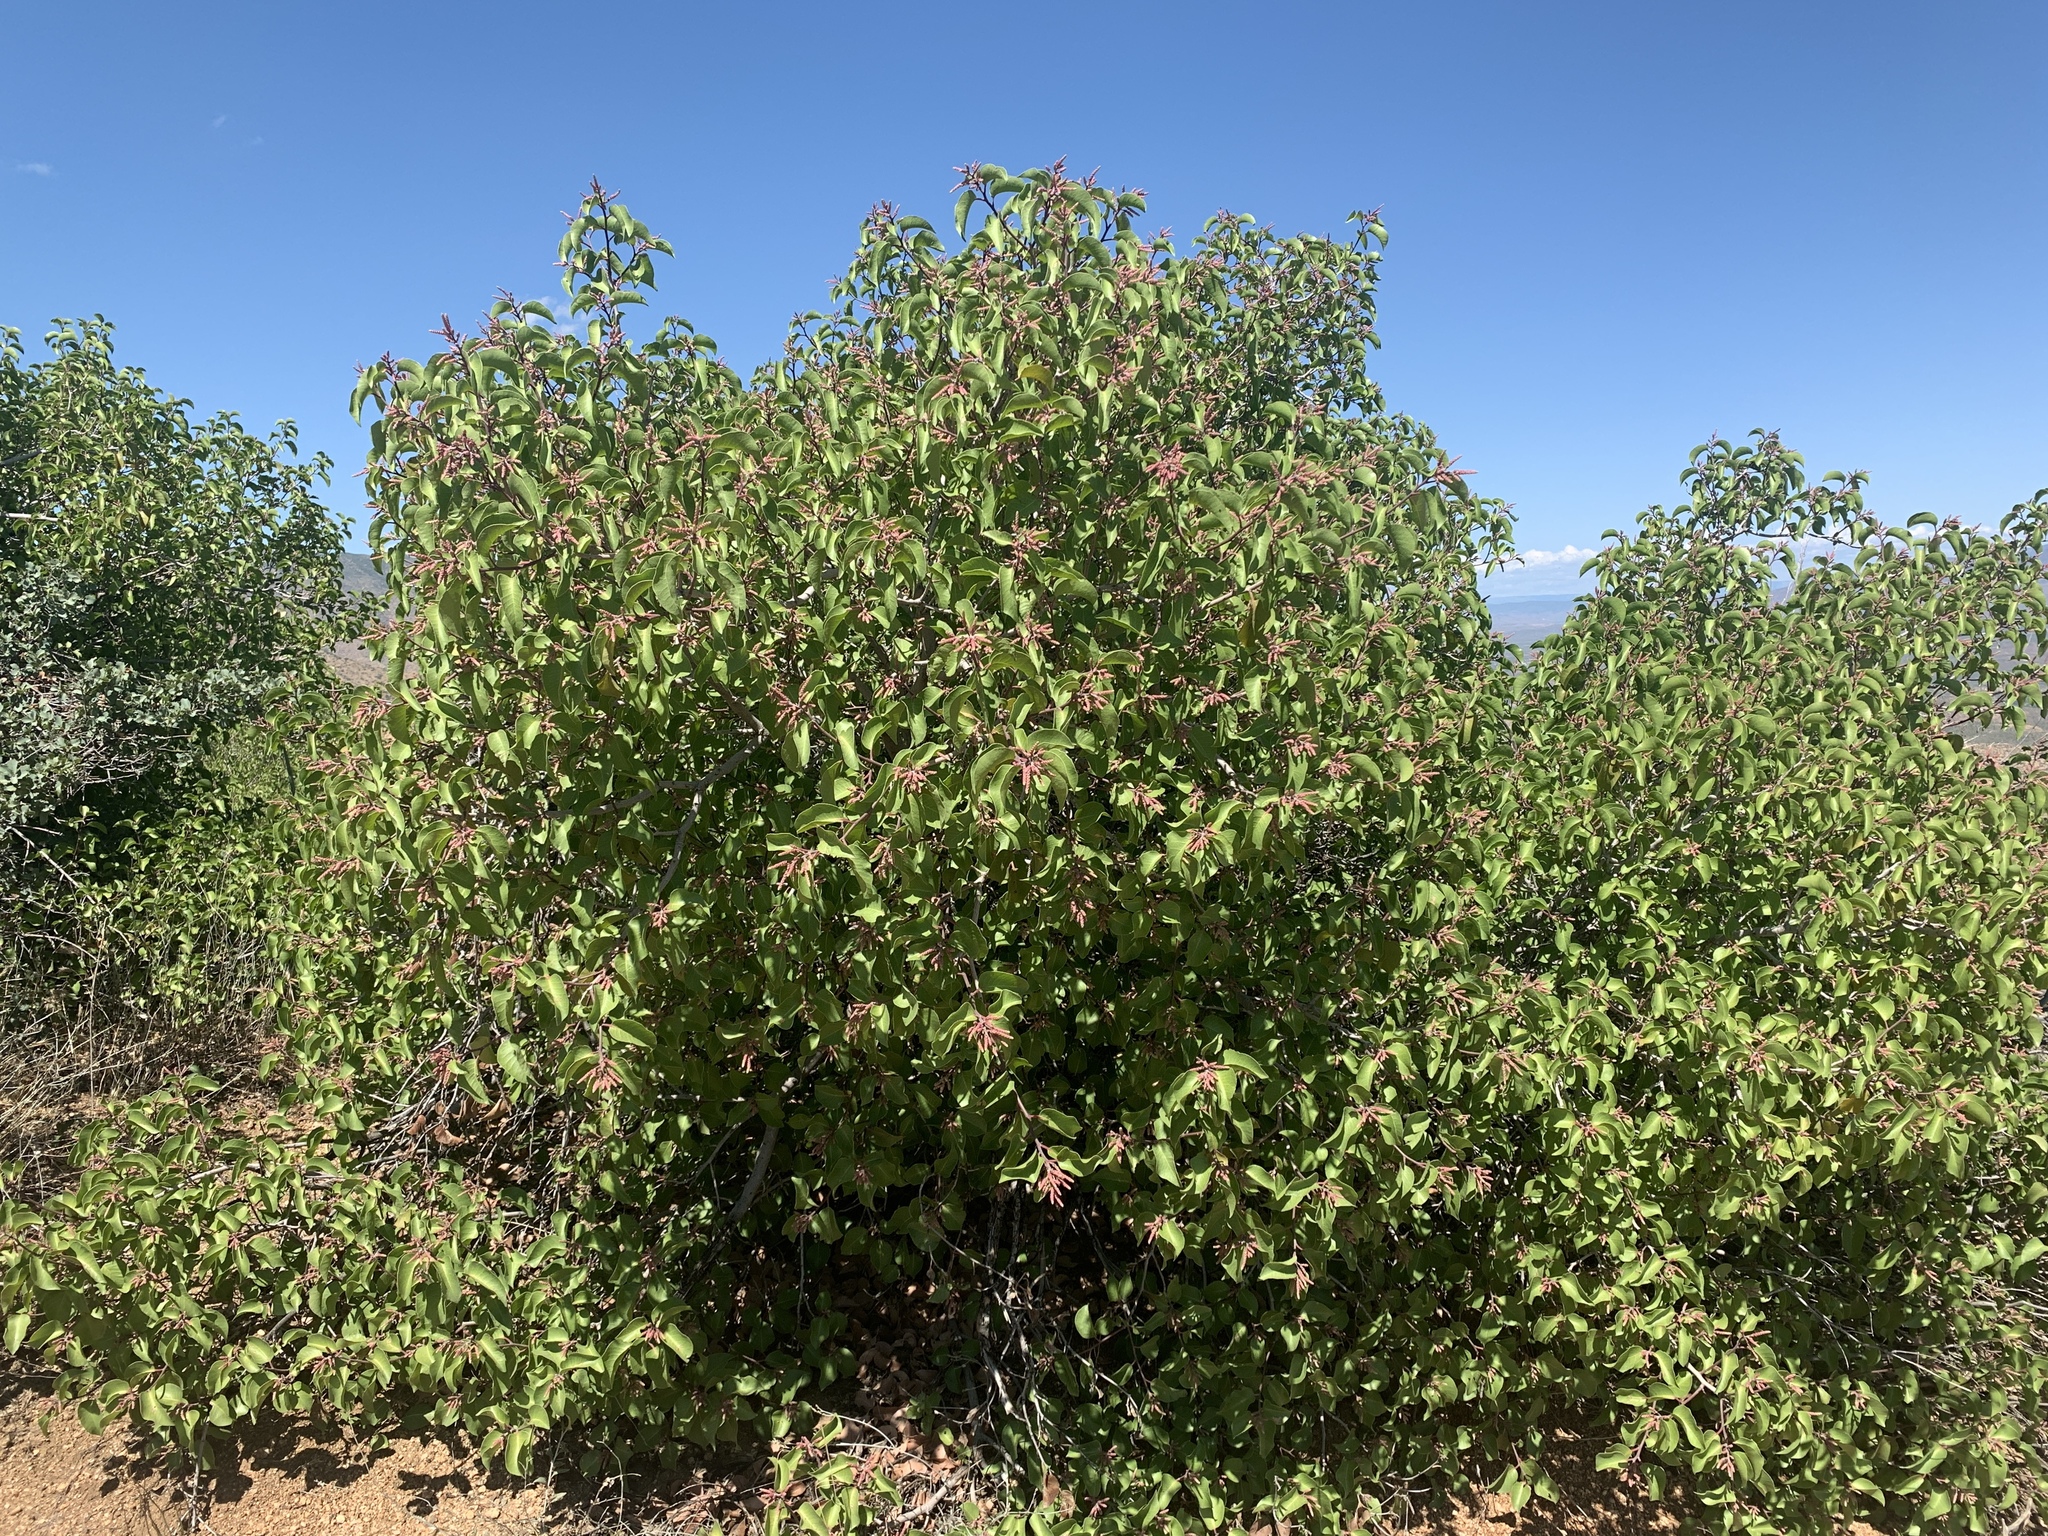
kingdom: Plantae
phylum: Tracheophyta
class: Magnoliopsida
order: Sapindales
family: Anacardiaceae
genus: Rhus
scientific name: Rhus ovata
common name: Sugar sumac
